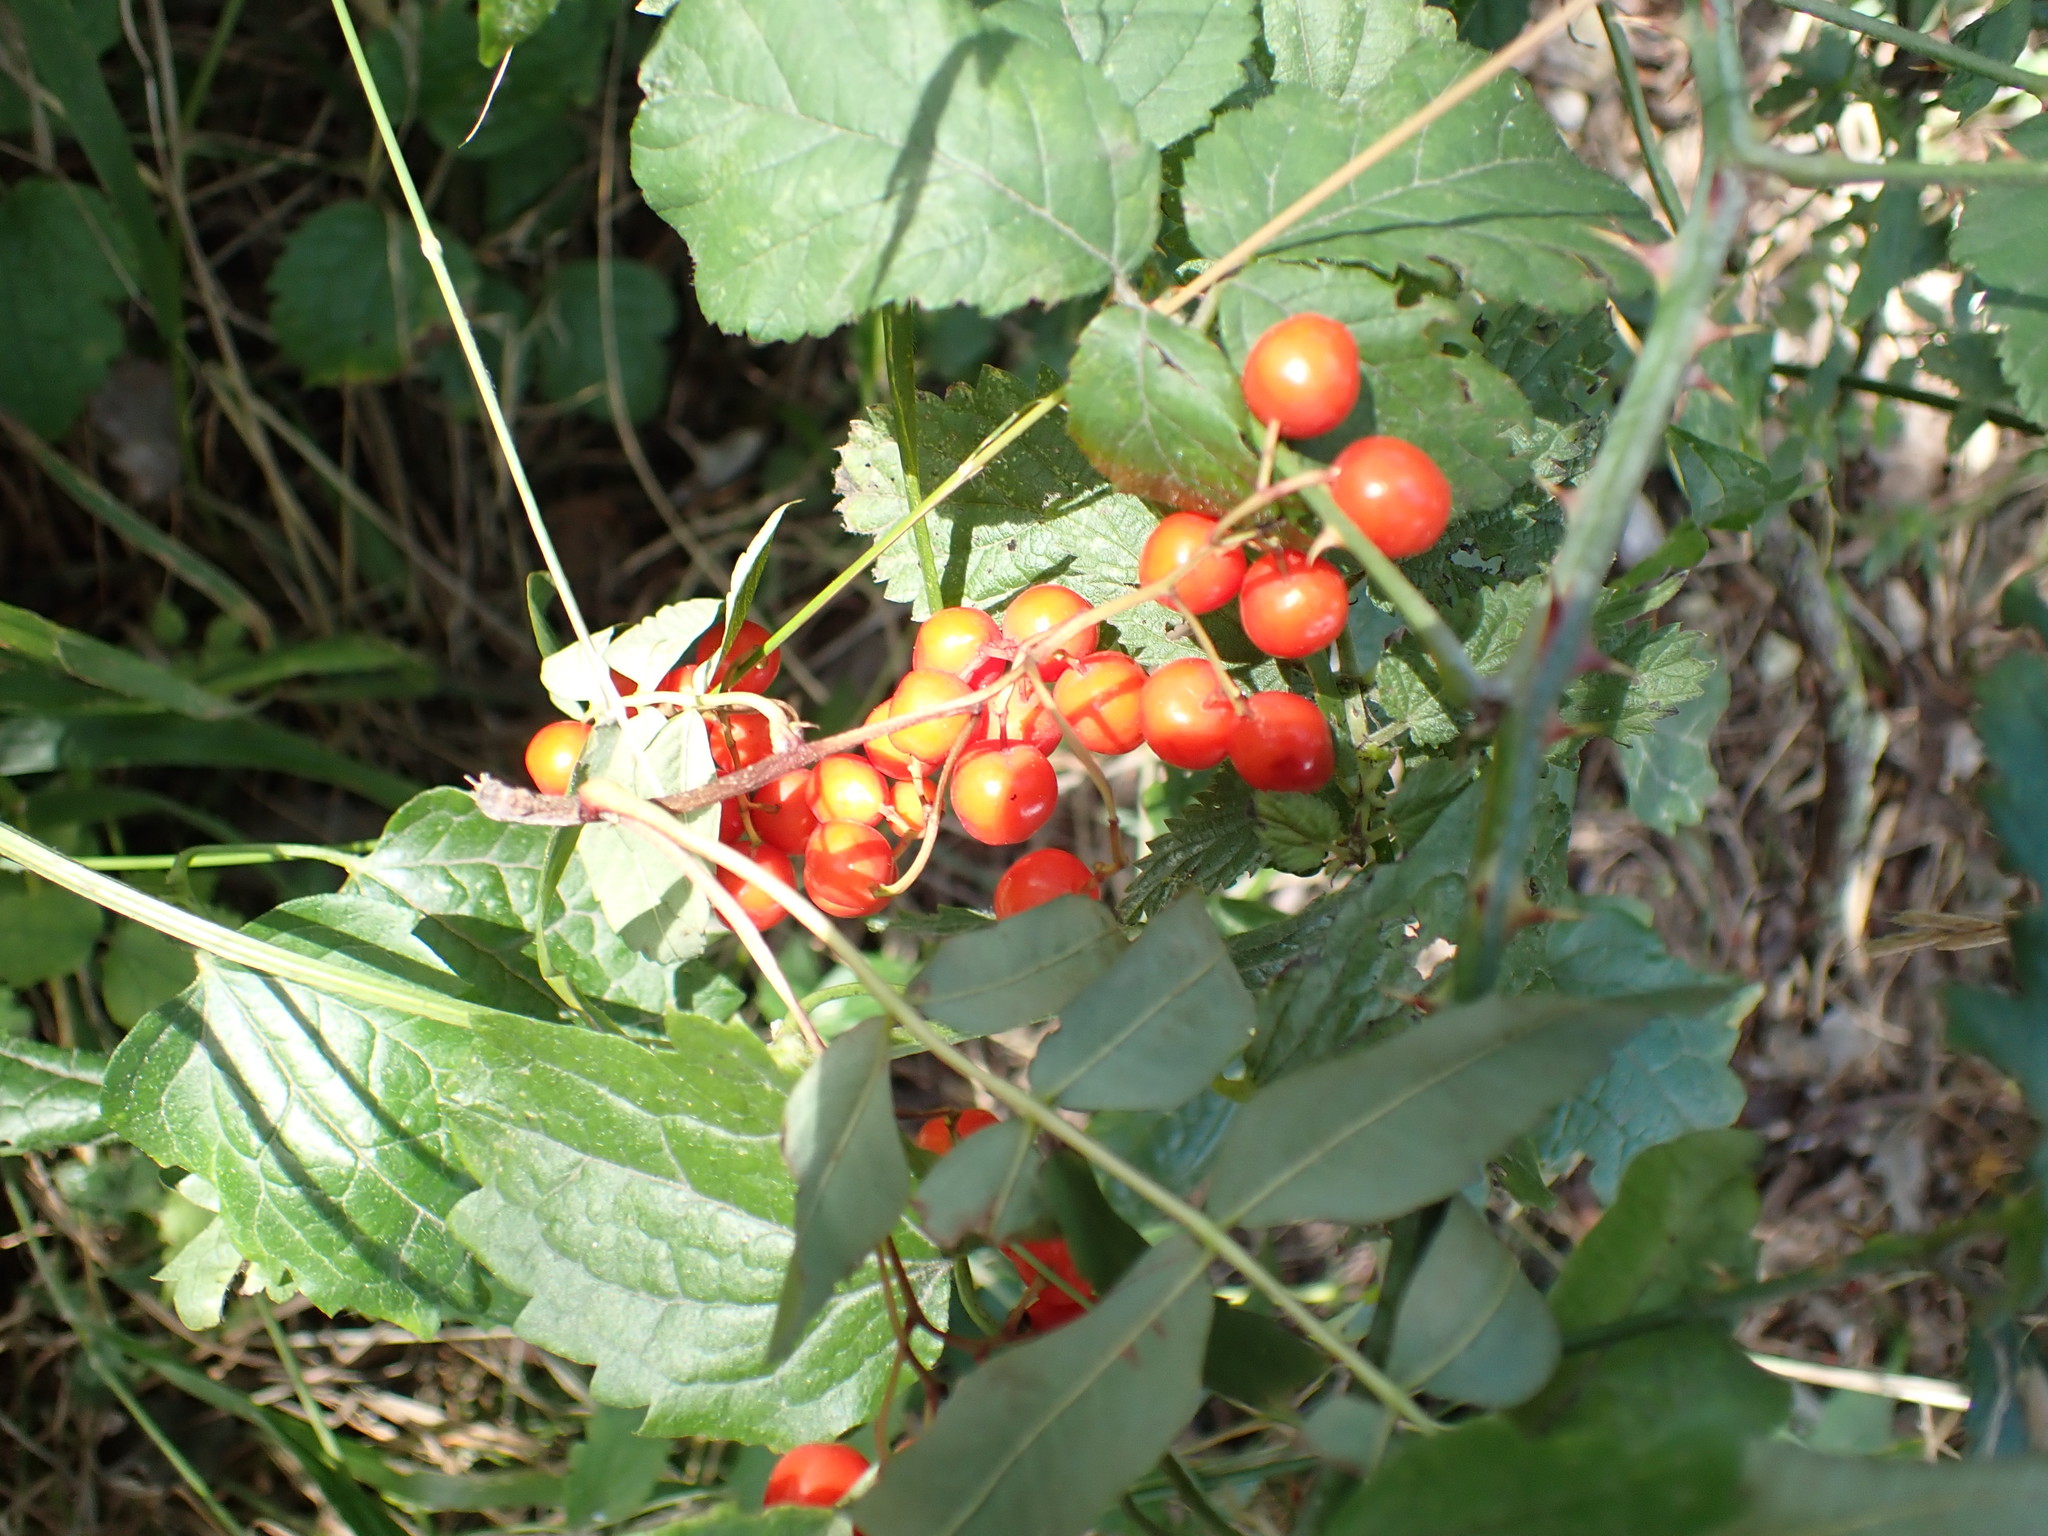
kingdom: Plantae
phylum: Tracheophyta
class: Liliopsida
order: Dioscoreales
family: Dioscoreaceae
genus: Dioscorea
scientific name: Dioscorea communis
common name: Black-bindweed
